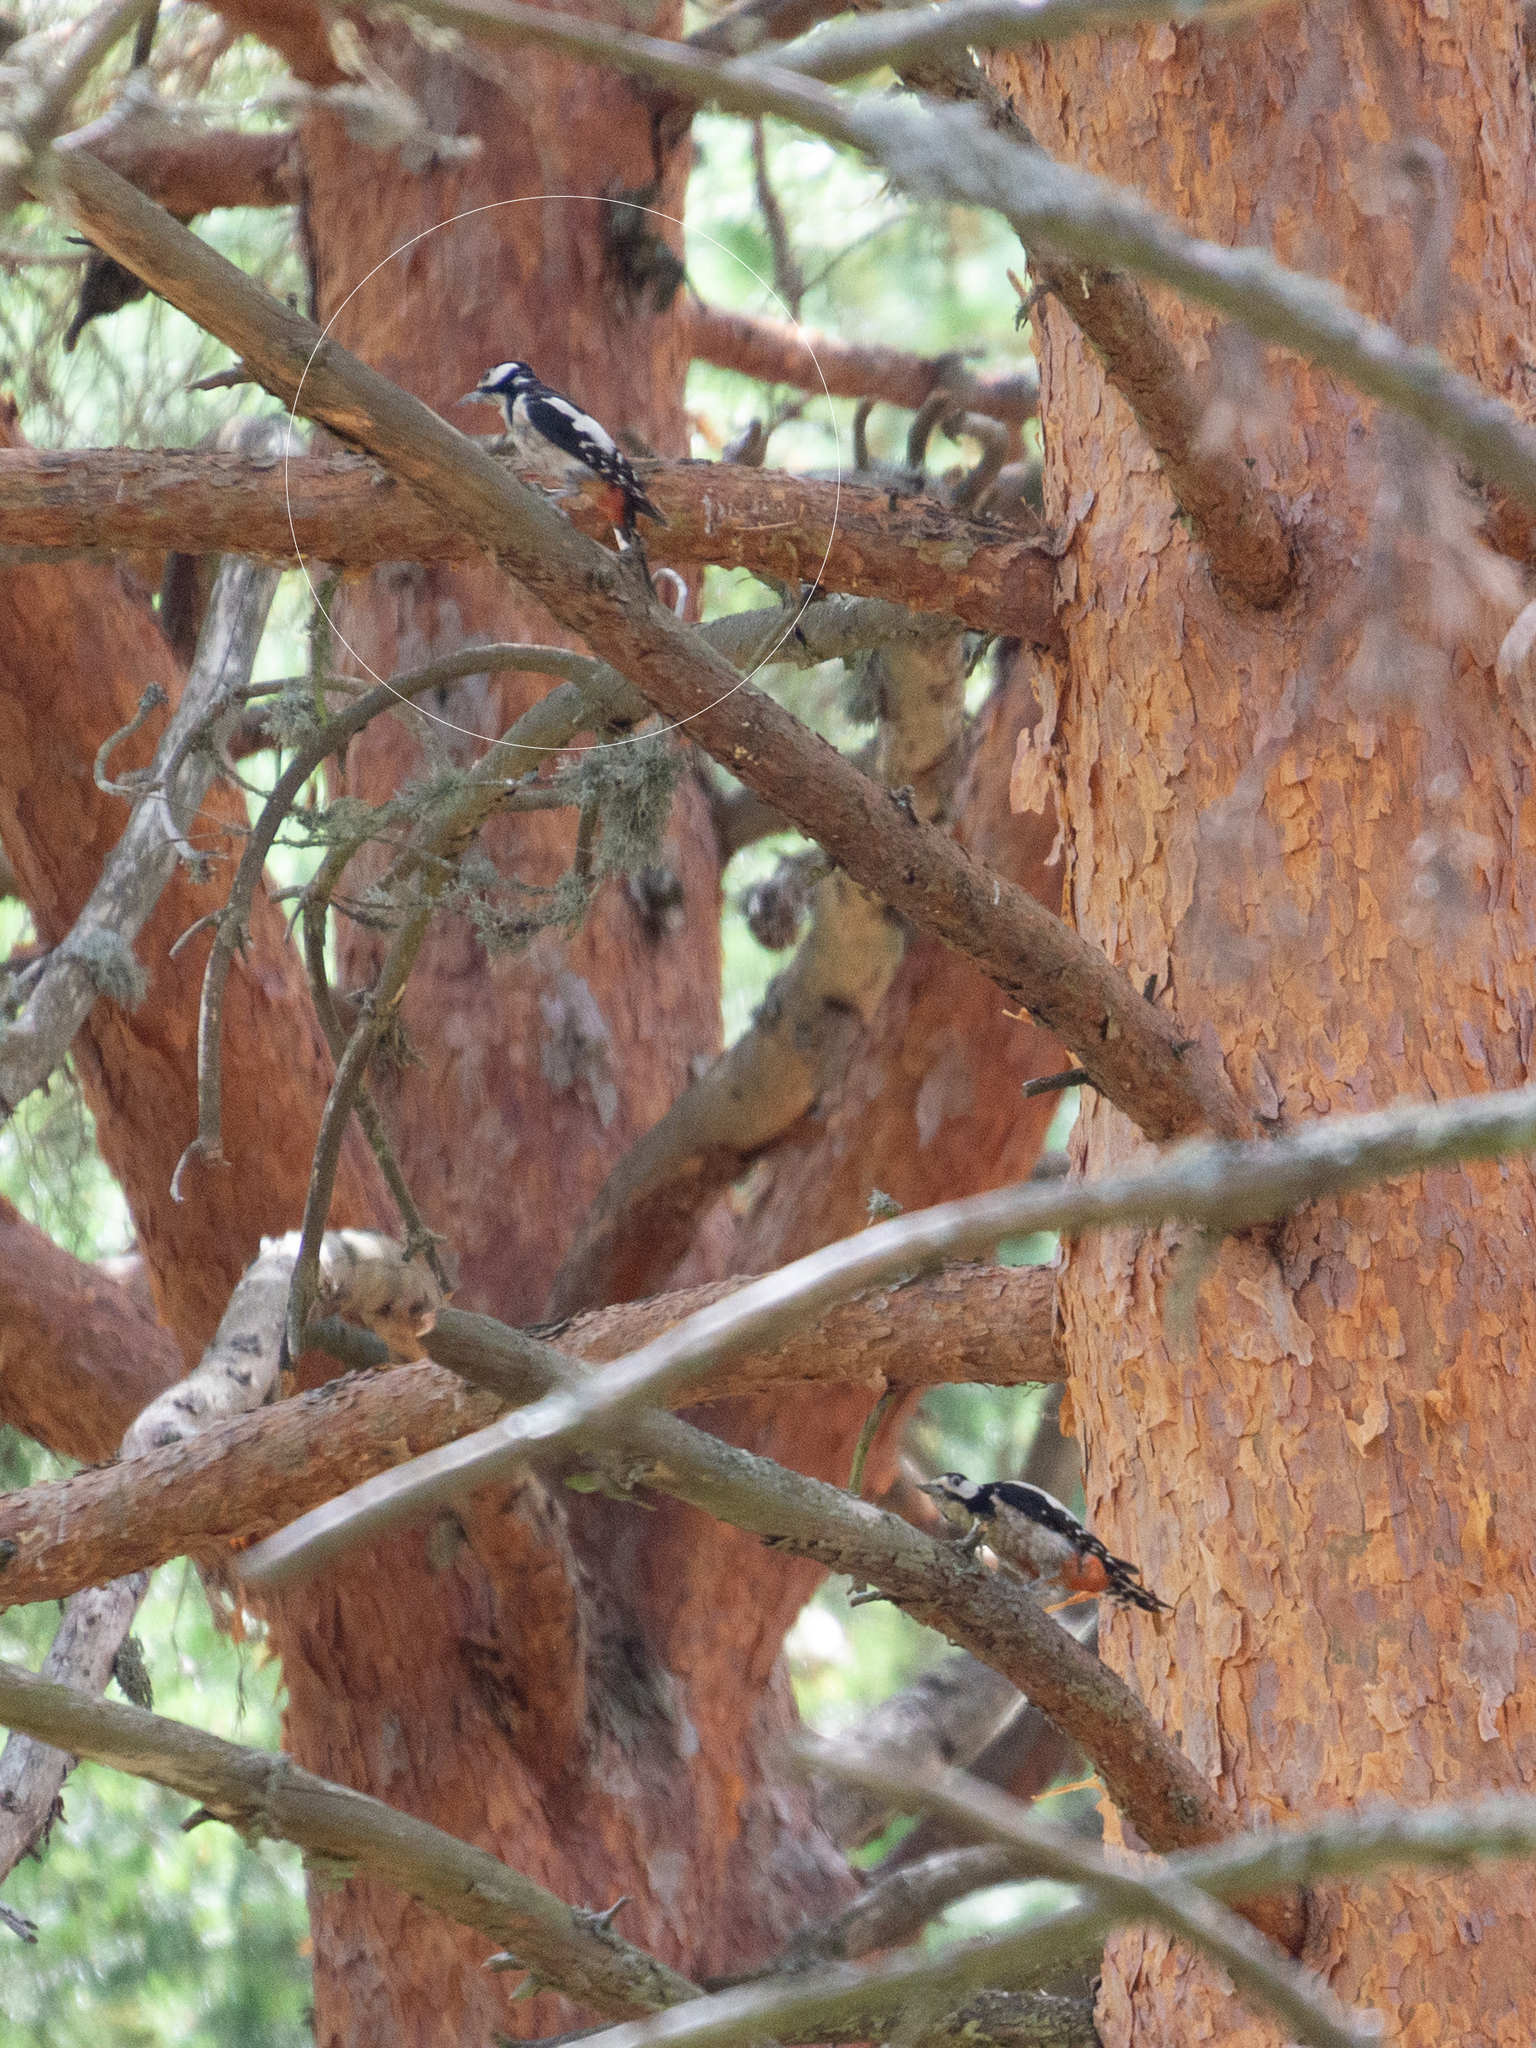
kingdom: Animalia
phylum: Chordata
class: Aves
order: Piciformes
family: Picidae
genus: Dendrocopos
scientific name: Dendrocopos major
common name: Great spotted woodpecker
